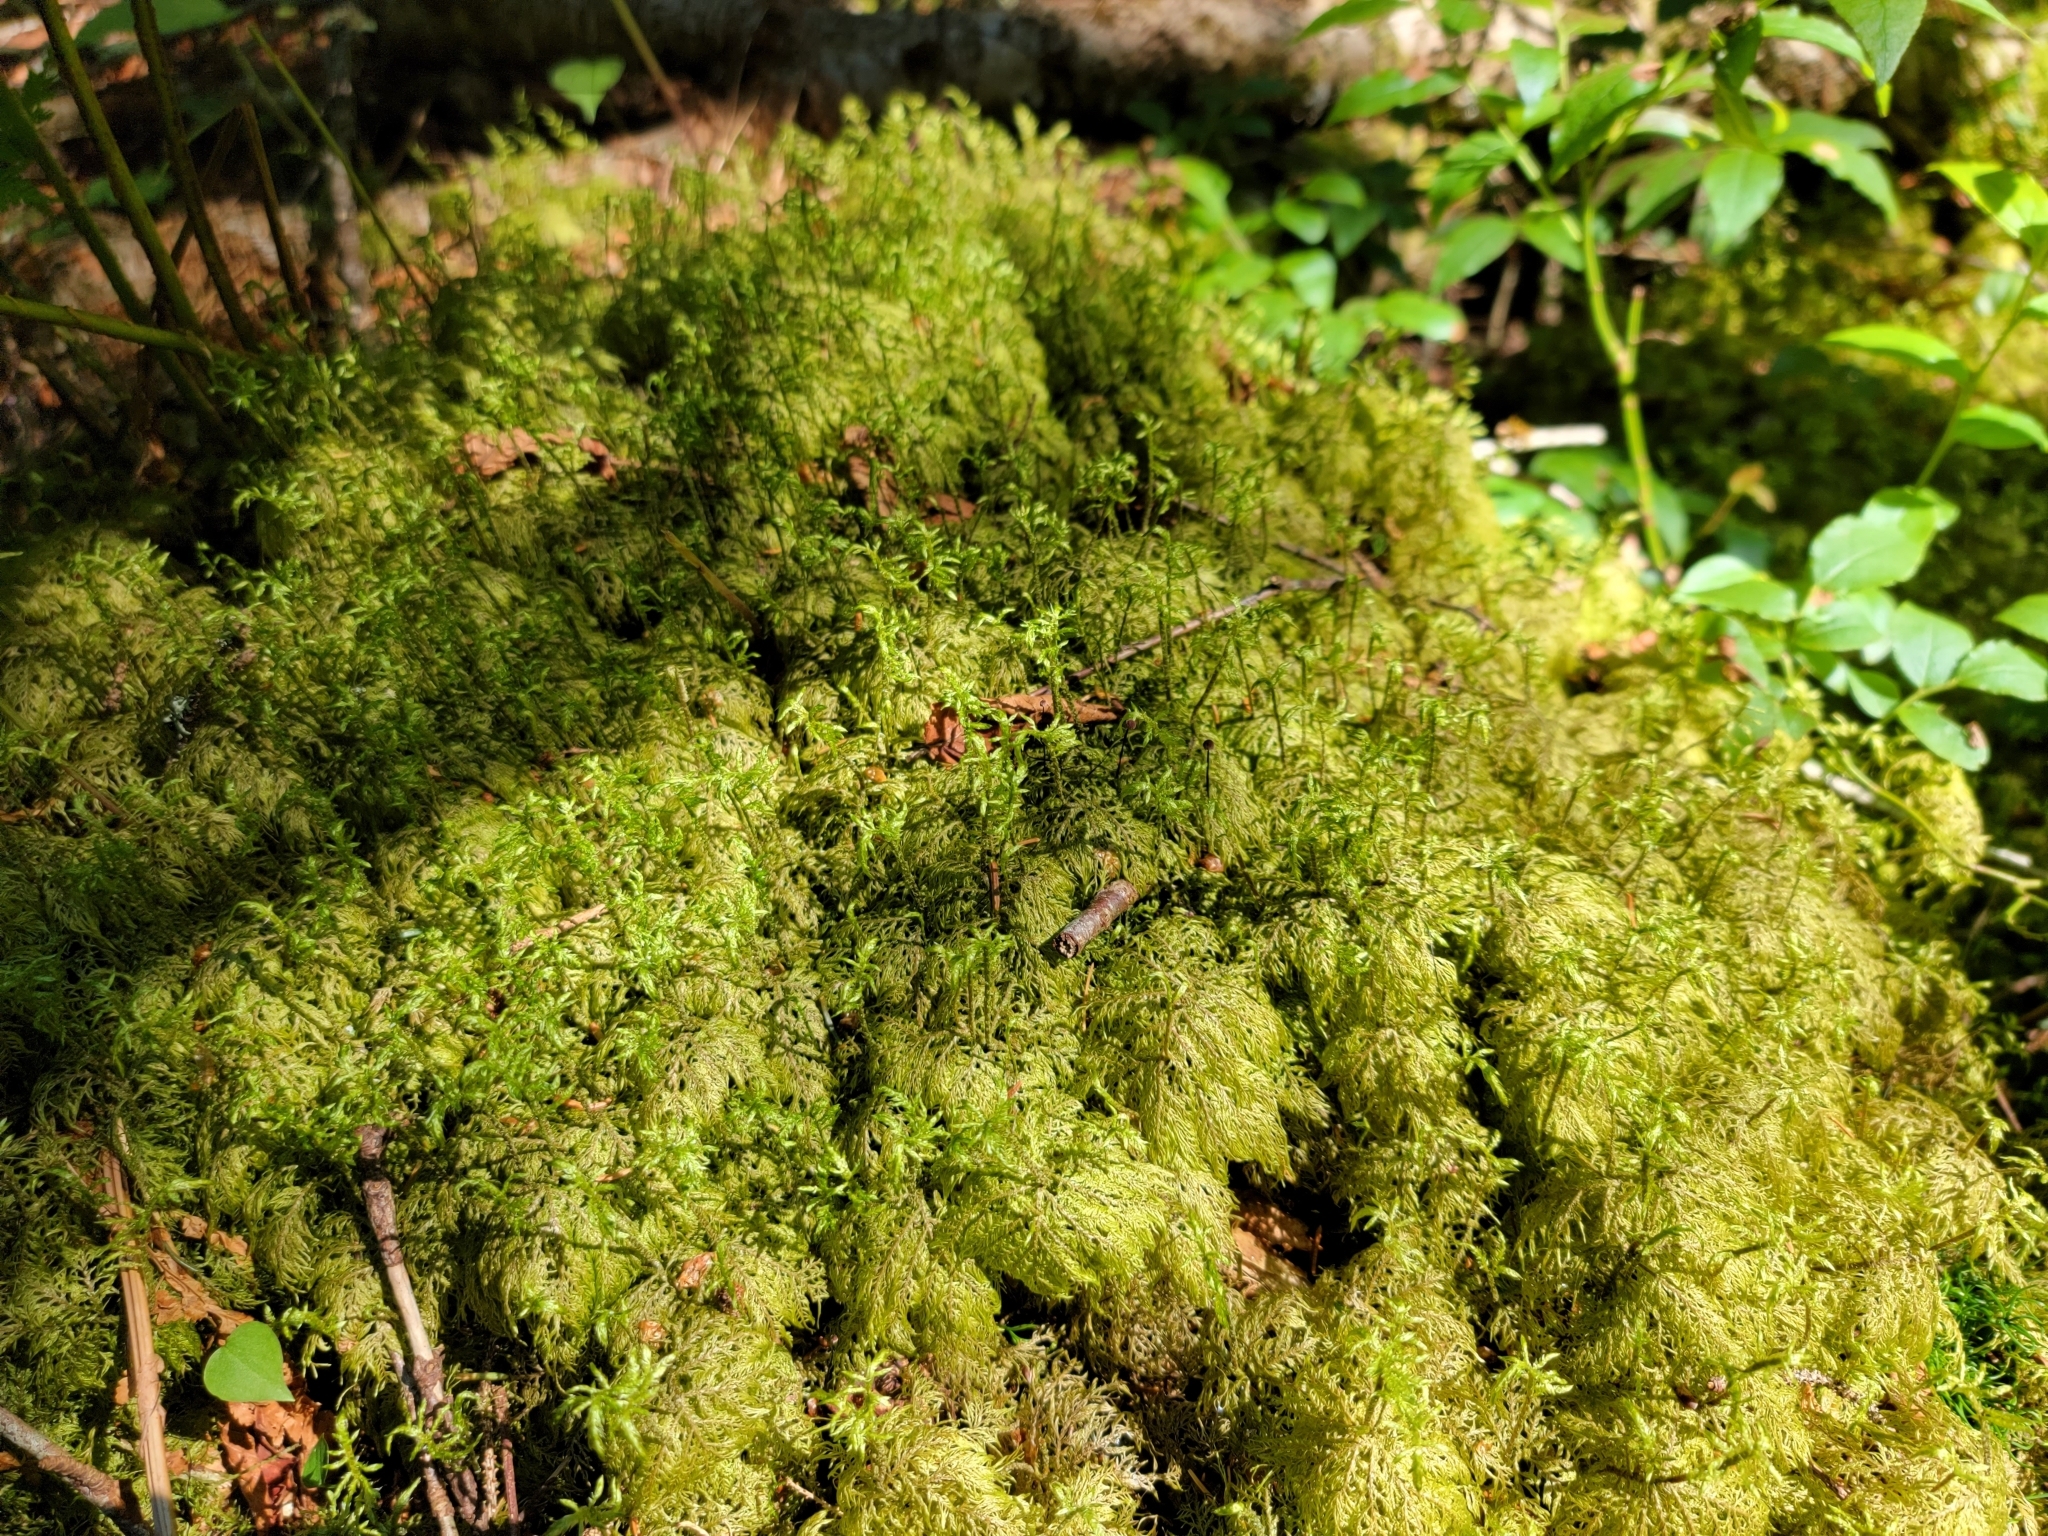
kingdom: Plantae
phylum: Bryophyta
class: Bryopsida
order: Hypnales
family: Hylocomiaceae
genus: Hylocomium
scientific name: Hylocomium splendens
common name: Stairstep moss
